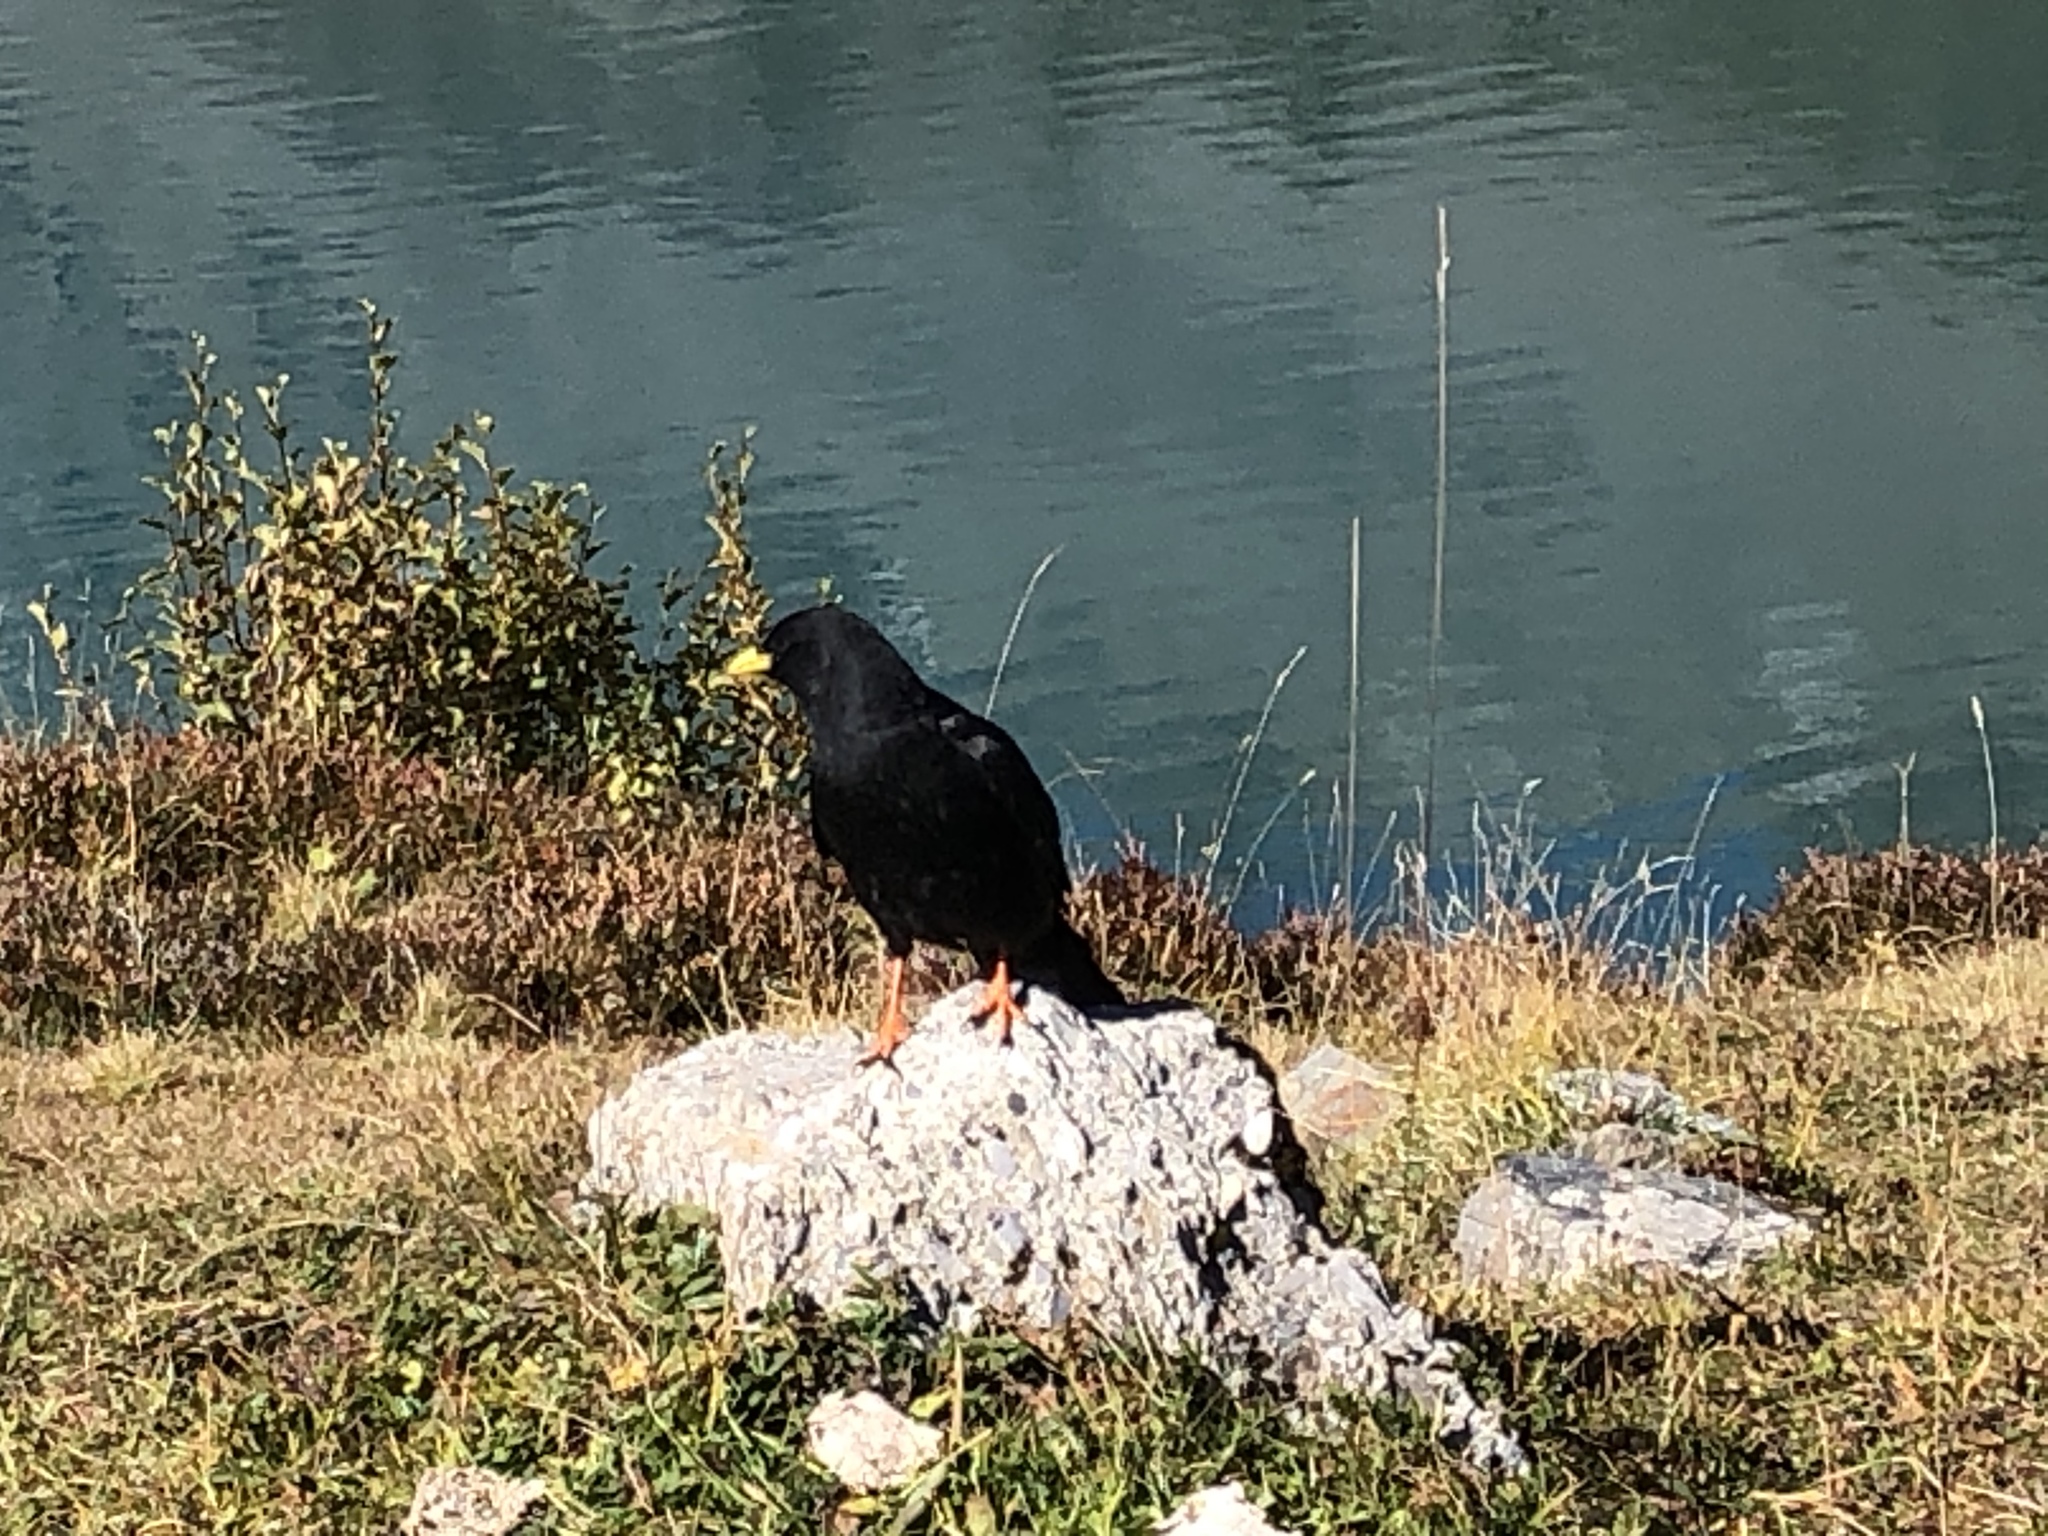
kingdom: Animalia
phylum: Chordata
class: Aves
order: Passeriformes
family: Corvidae
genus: Pyrrhocorax
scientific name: Pyrrhocorax graculus
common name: Alpine chough
